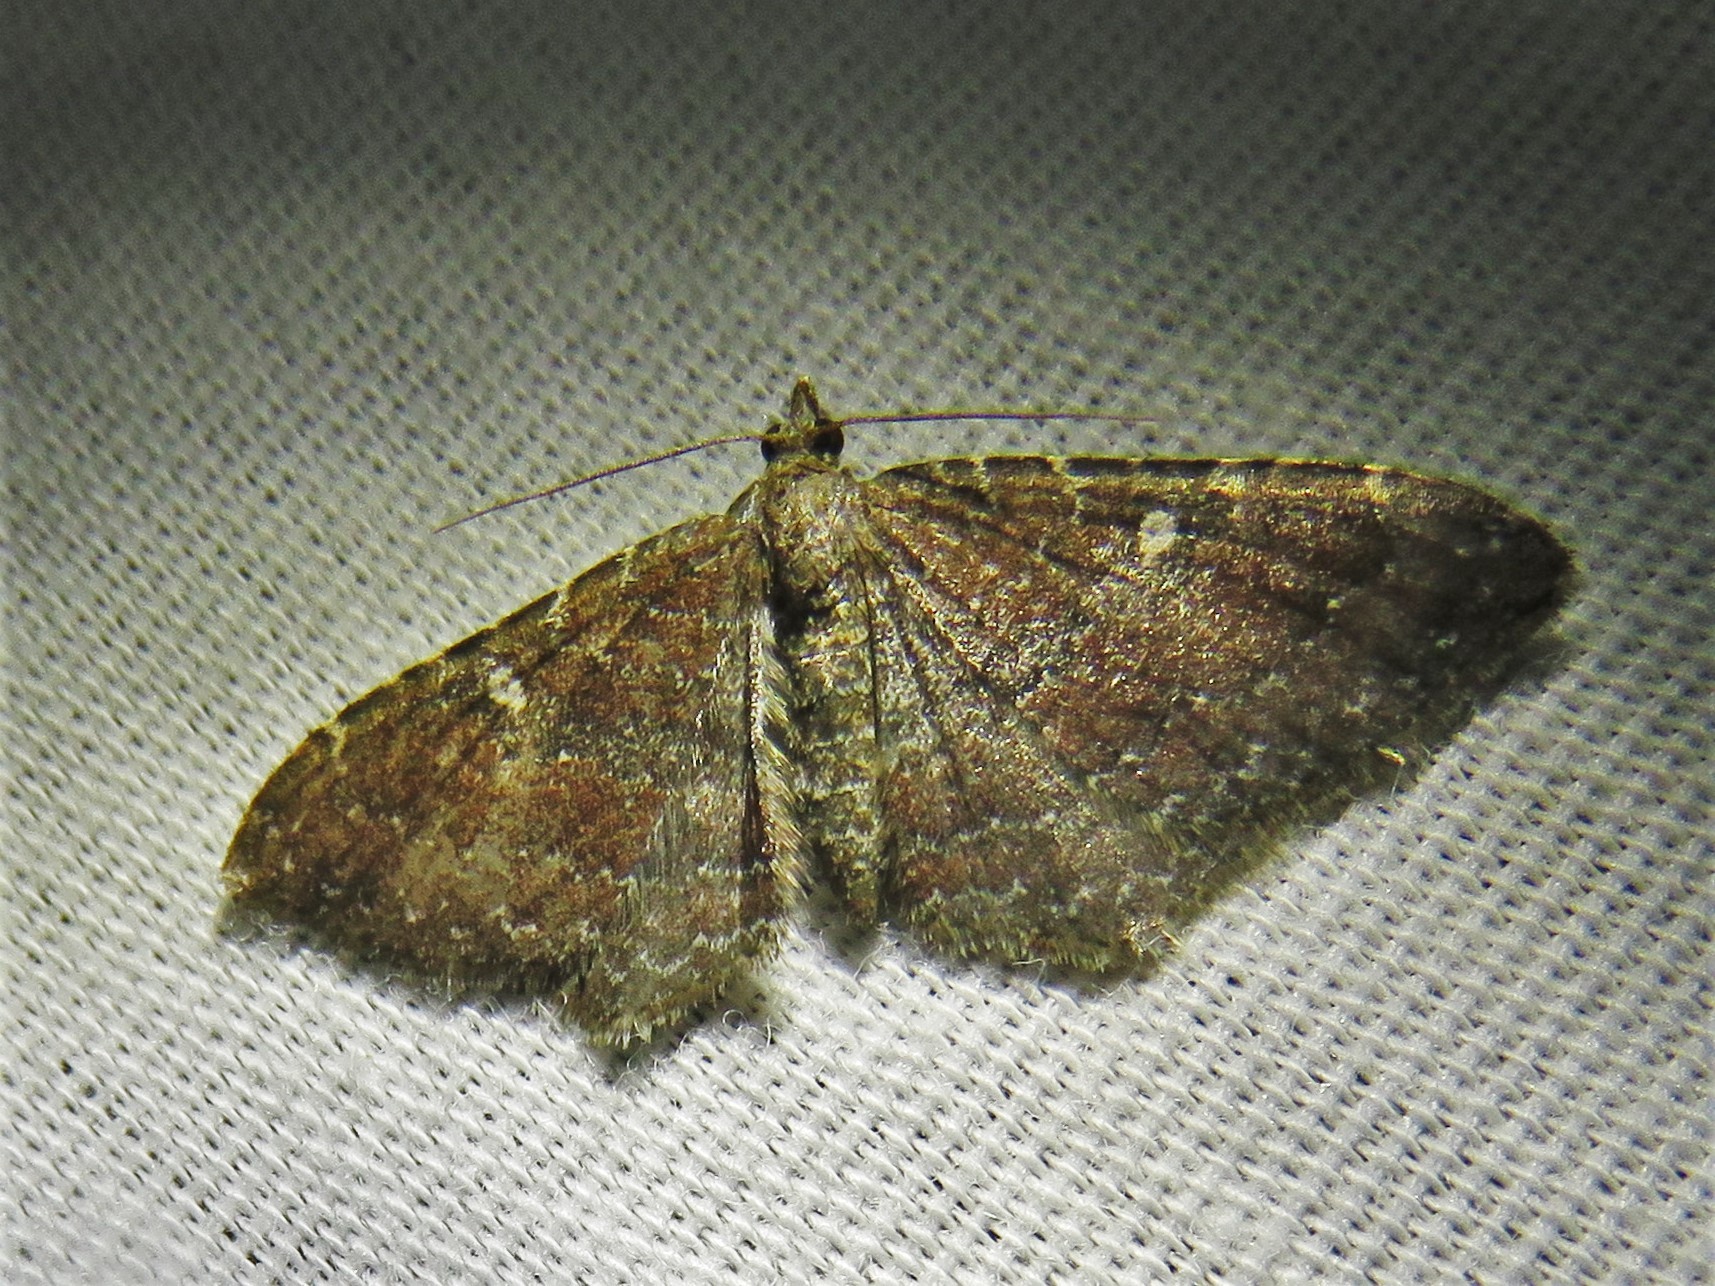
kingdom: Animalia
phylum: Arthropoda
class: Insecta
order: Lepidoptera
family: Geometridae
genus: Orthonama
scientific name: Orthonama obstipata
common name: The gem
